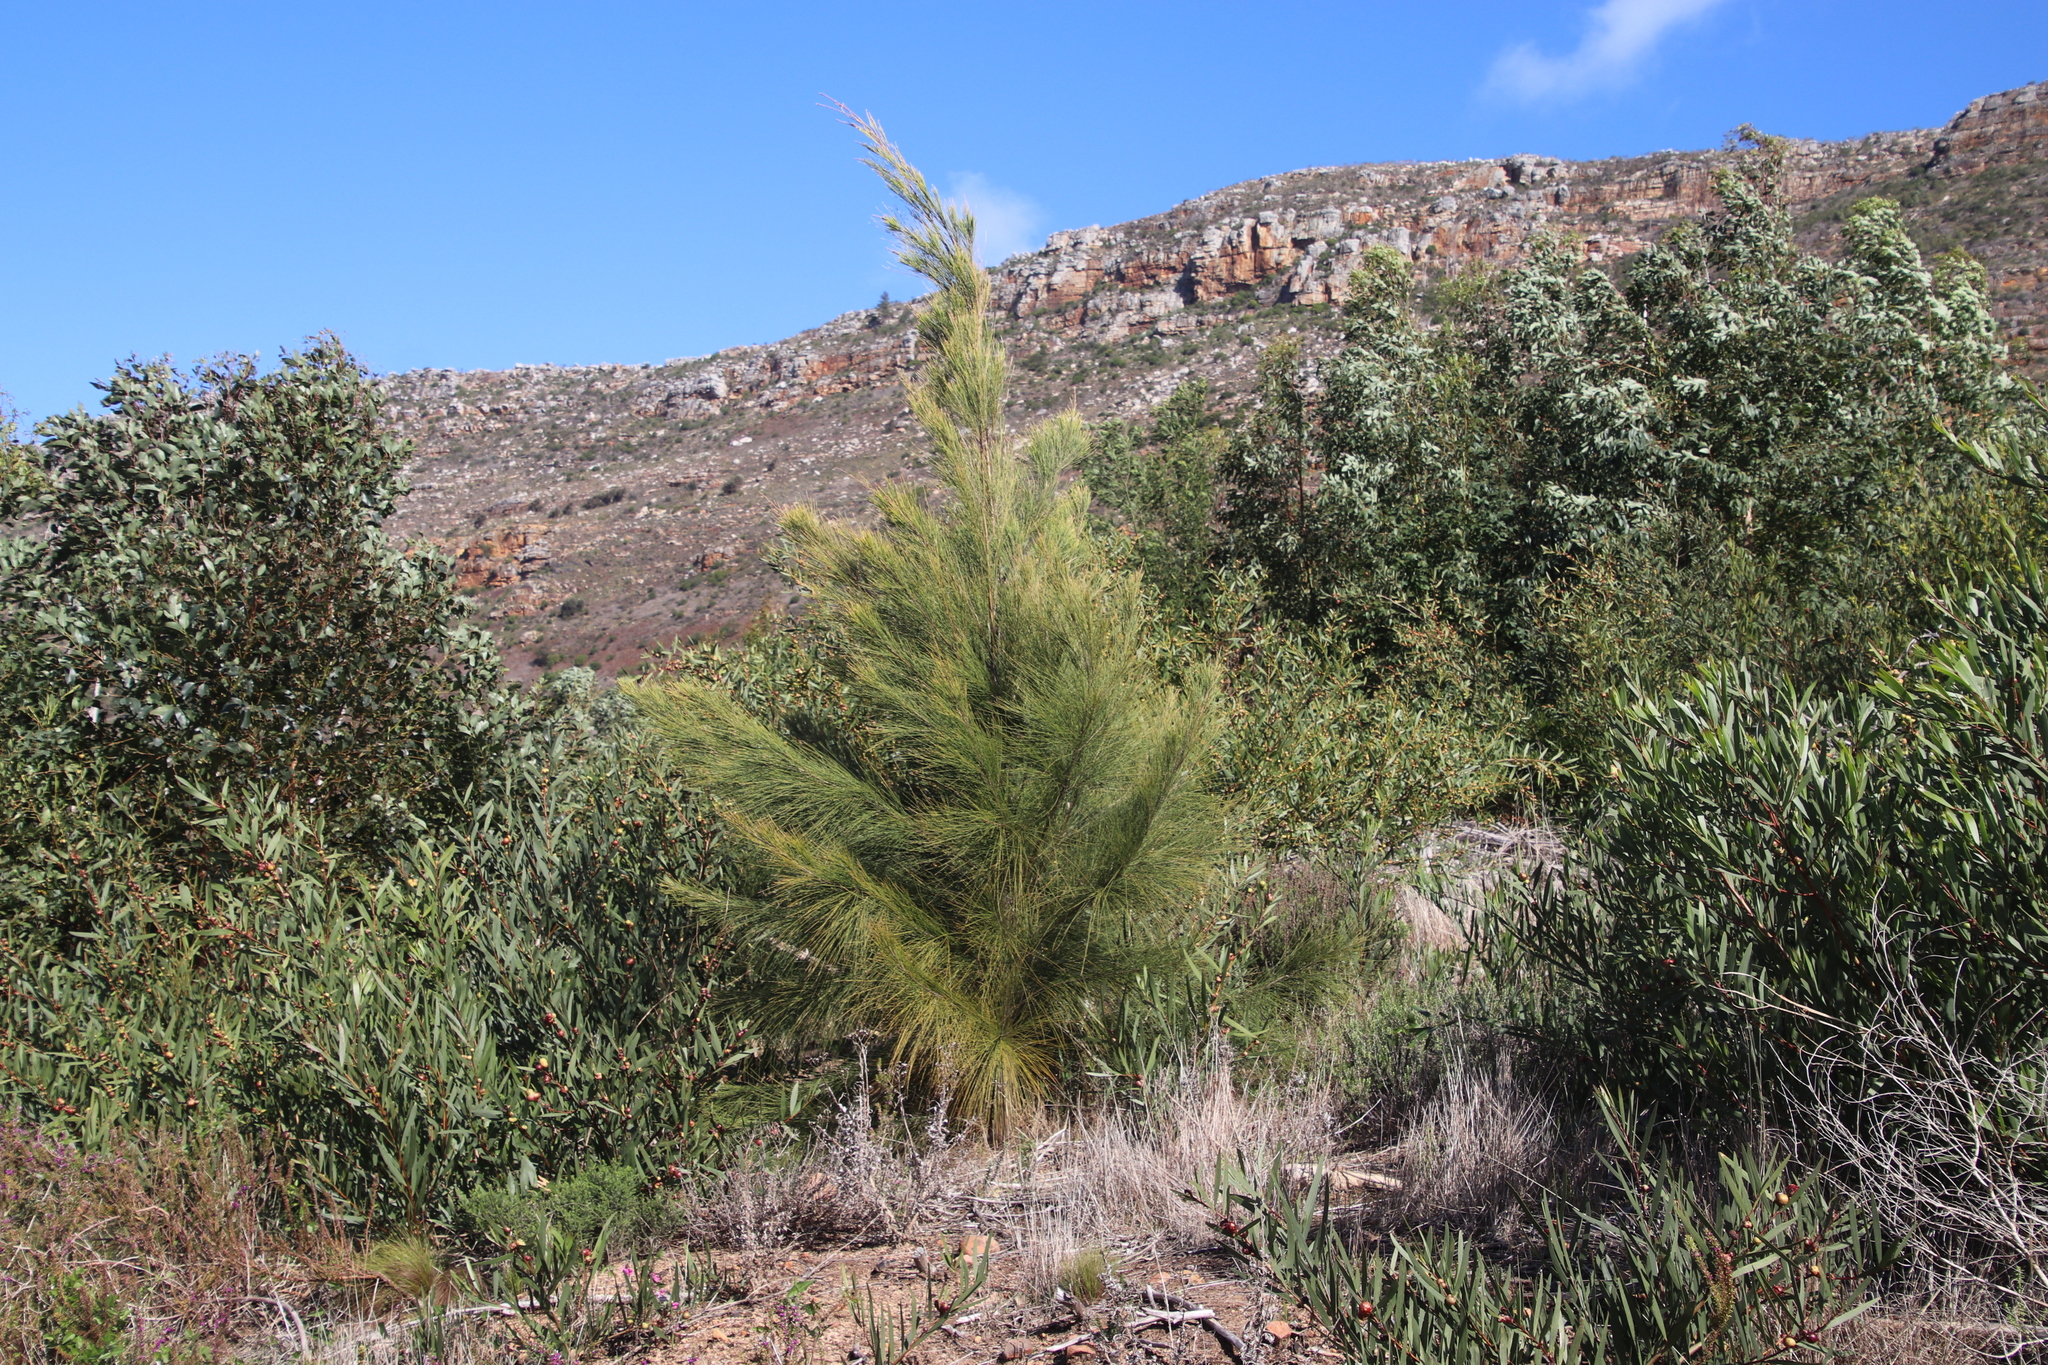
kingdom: Plantae
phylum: Tracheophyta
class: Magnoliopsida
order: Fagales
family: Casuarinaceae
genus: Casuarina
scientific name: Casuarina cunninghamiana
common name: River sheoak
